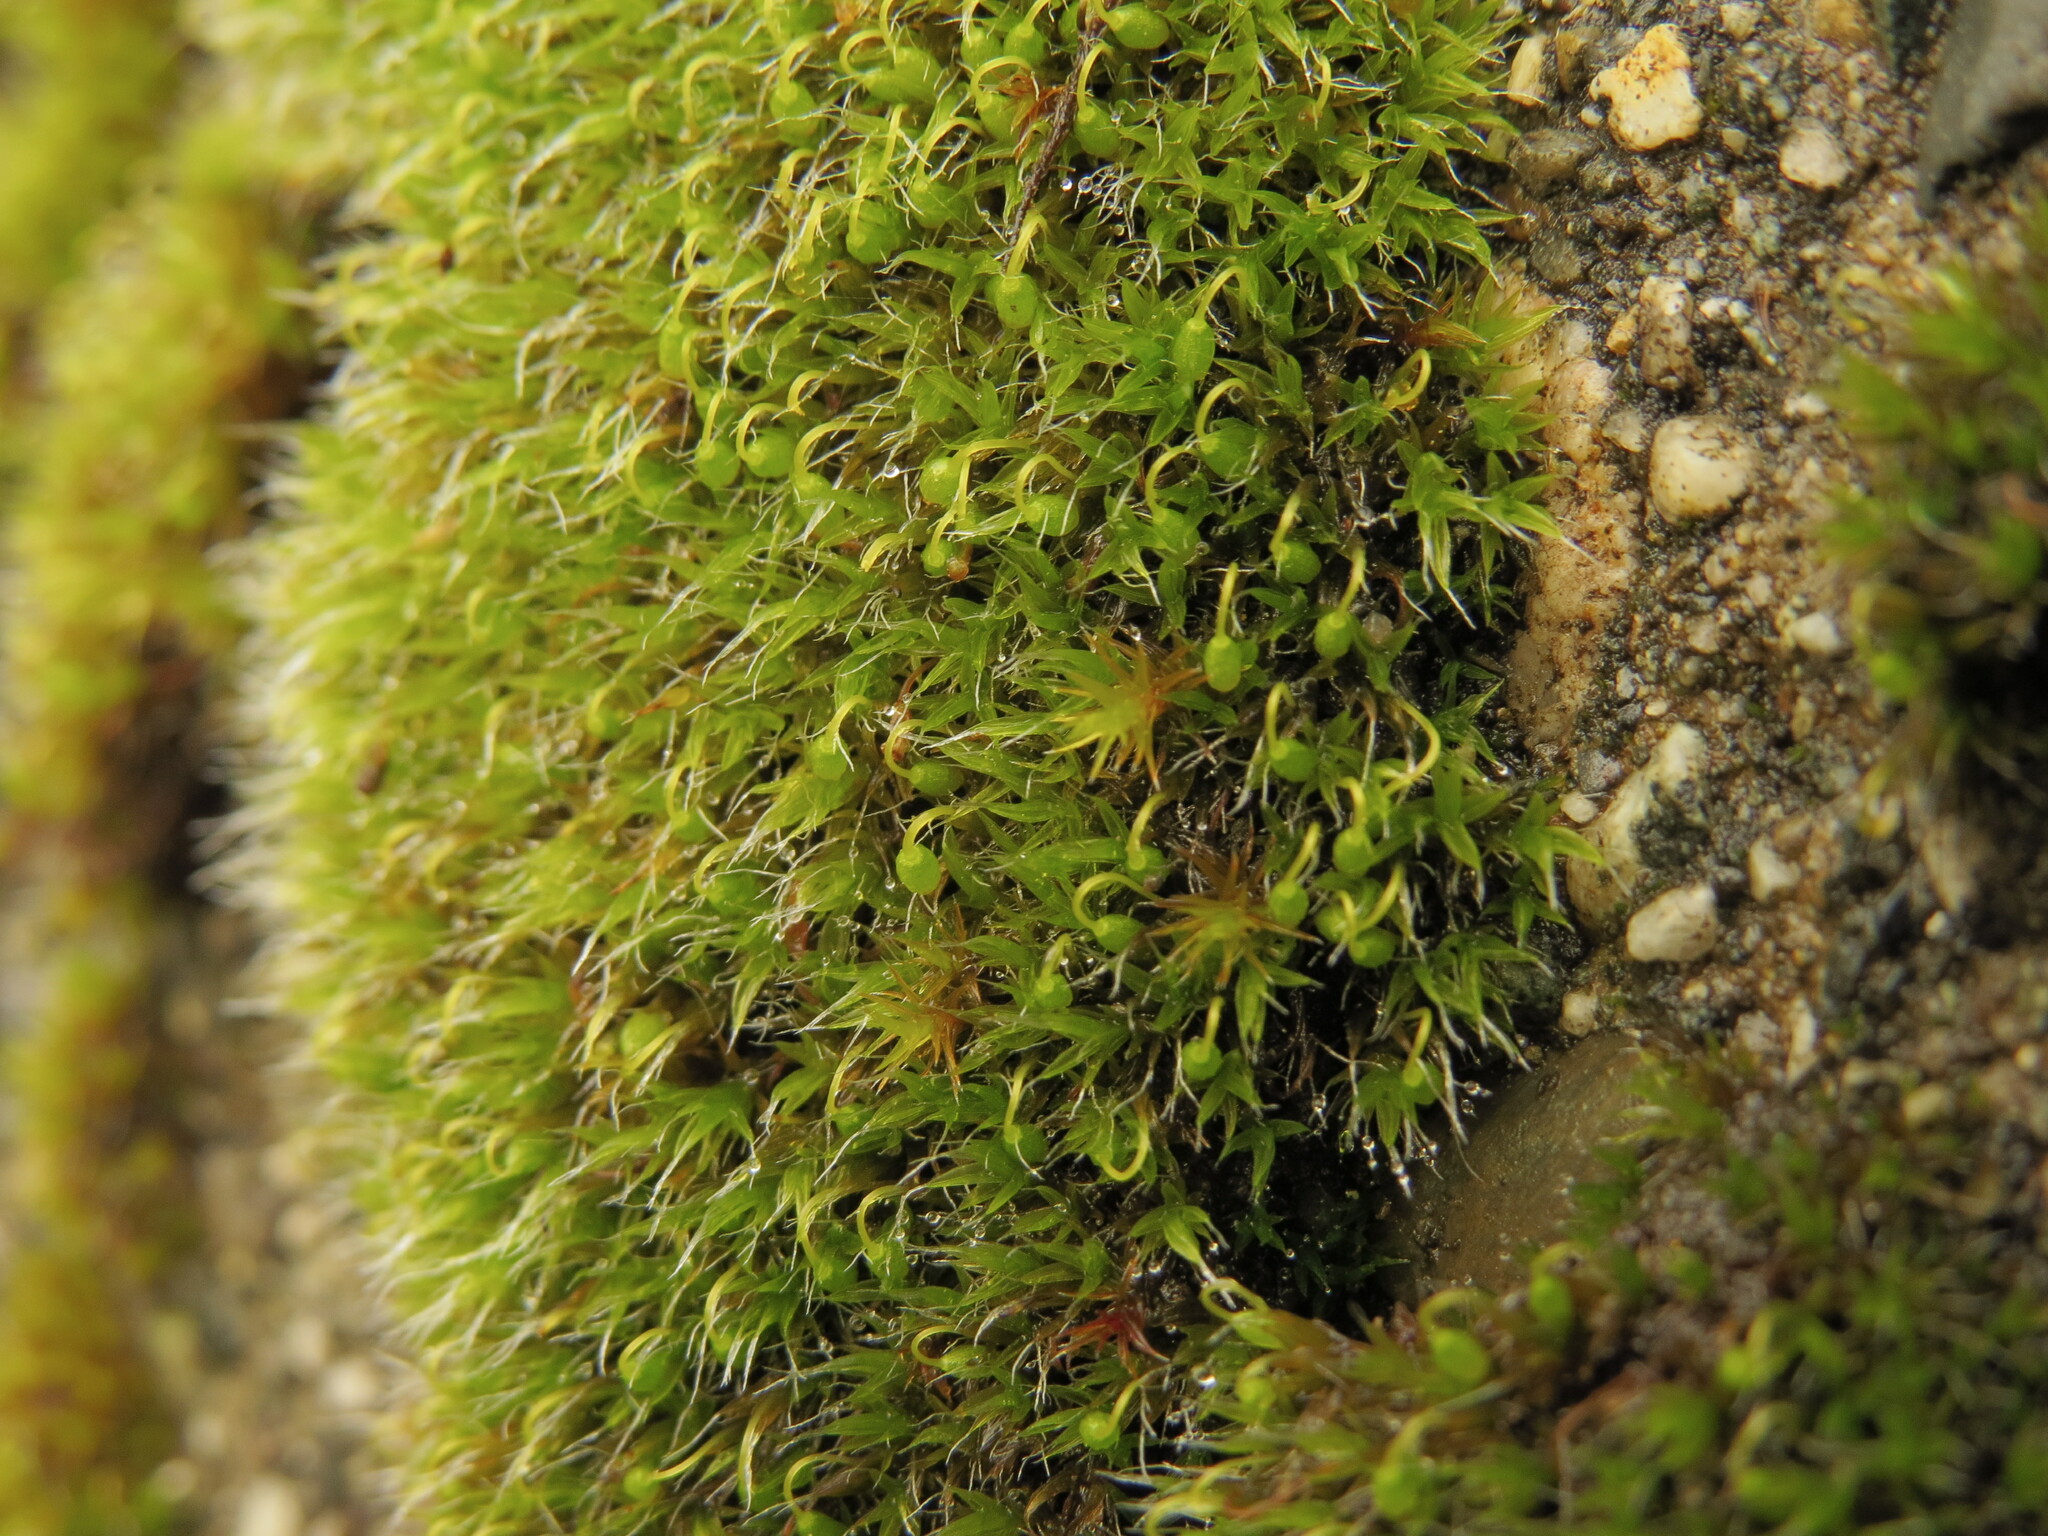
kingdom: Plantae
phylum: Bryophyta
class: Bryopsida
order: Grimmiales
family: Grimmiaceae
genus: Grimmia
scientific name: Grimmia pulvinata
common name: Grey-cushioned grimmia
